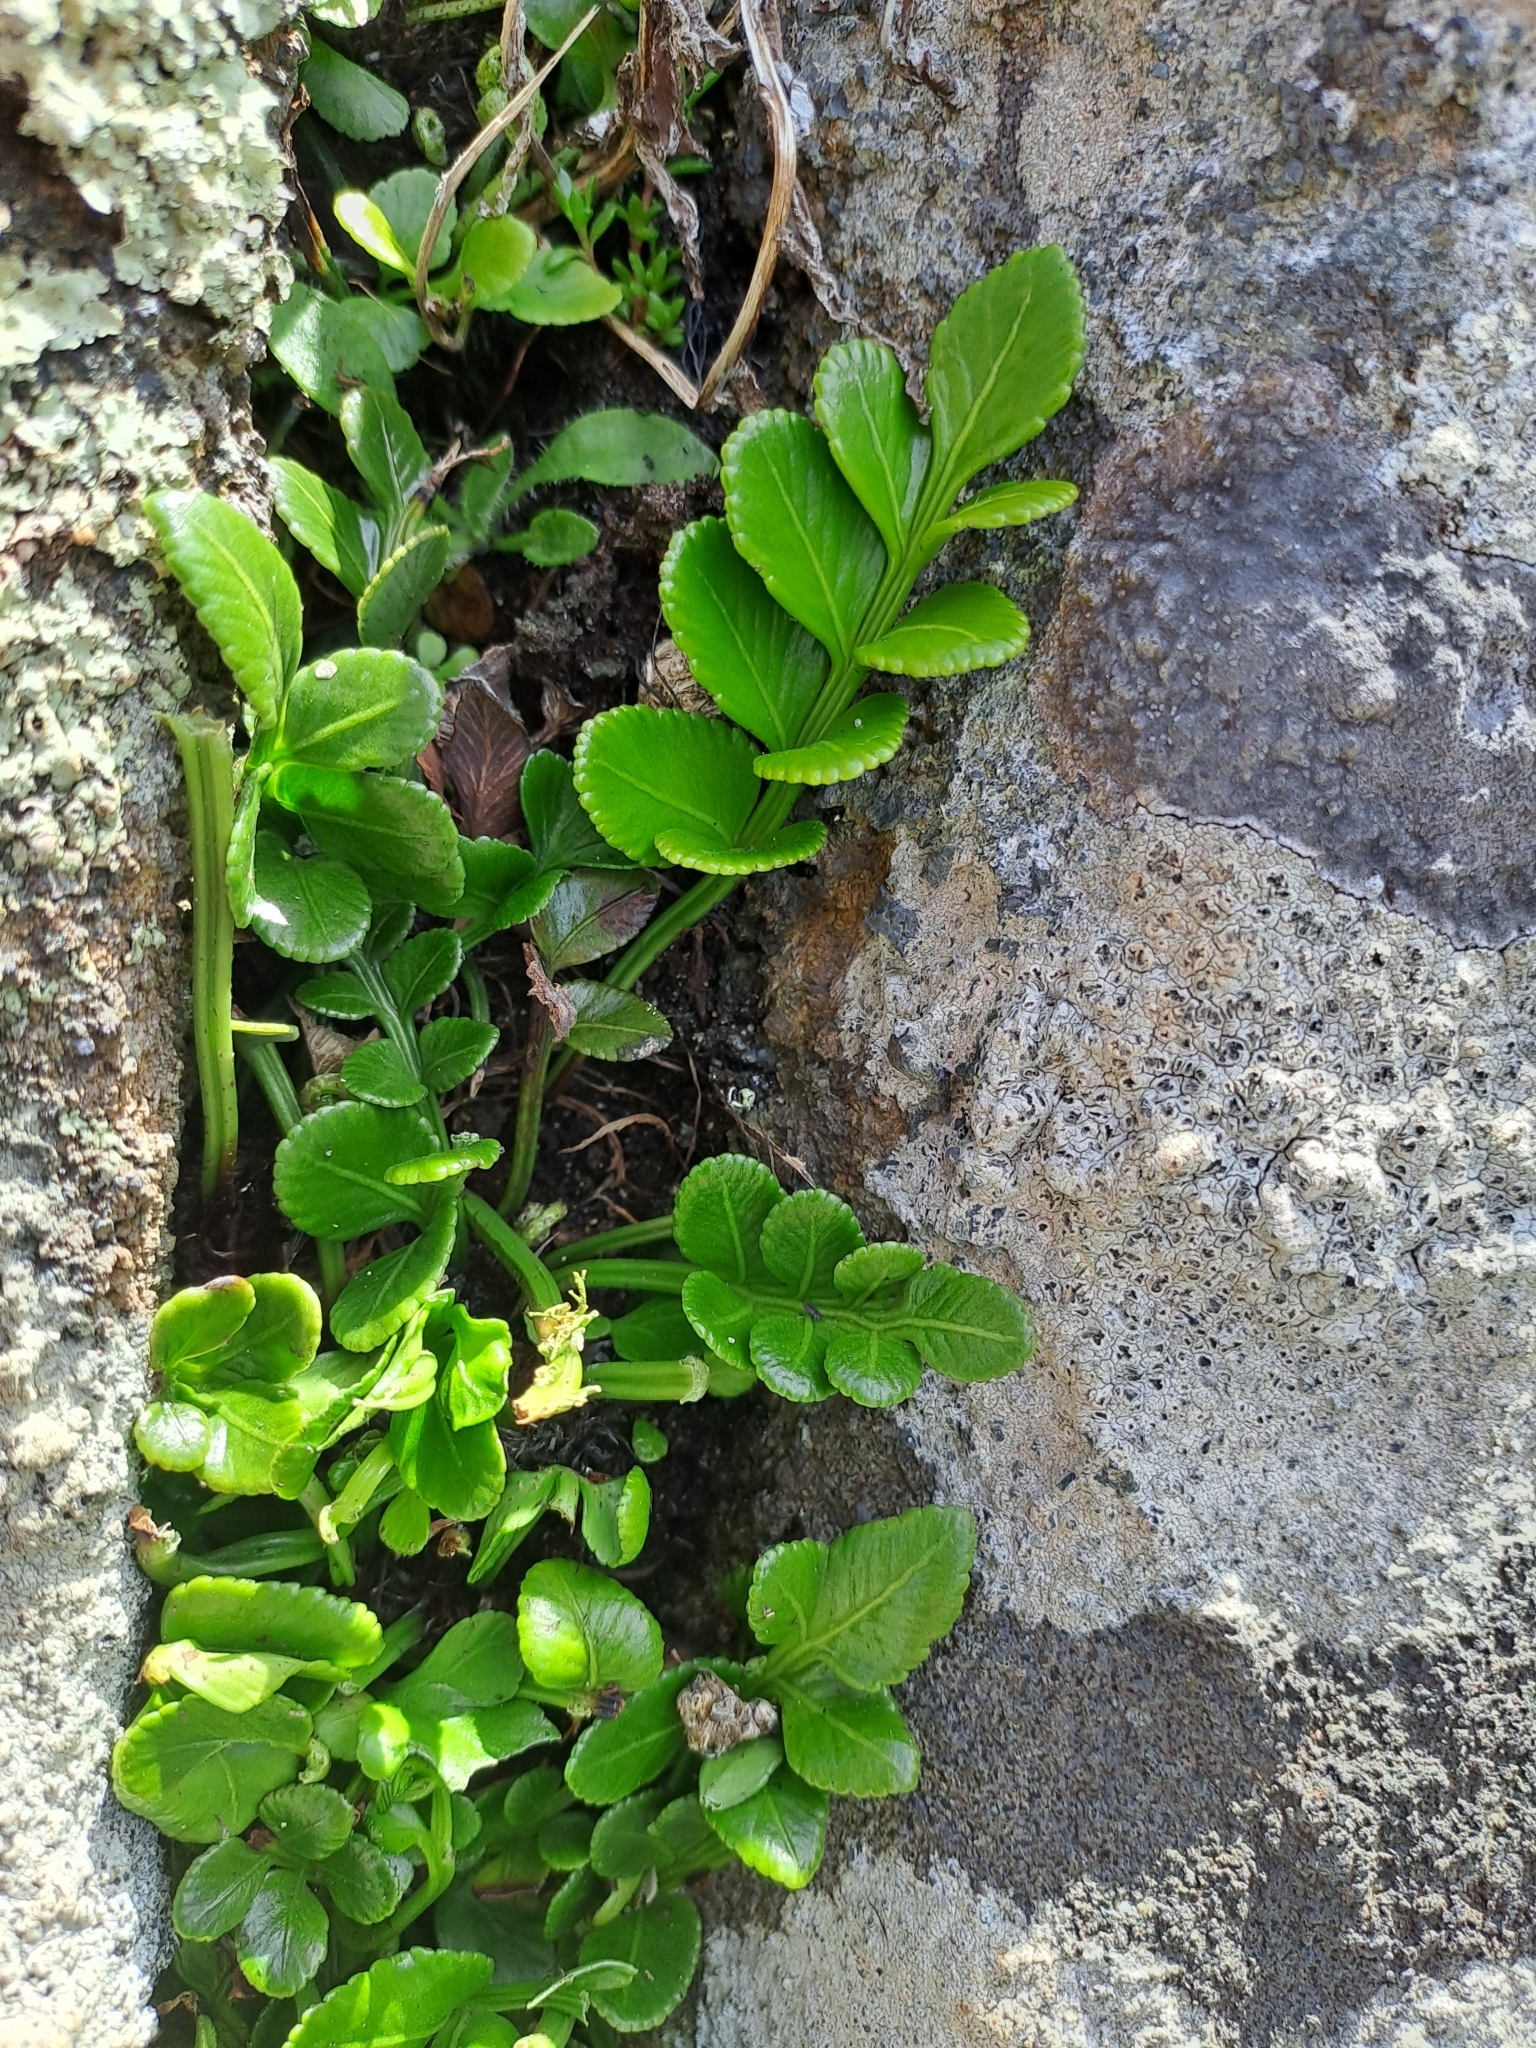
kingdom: Plantae
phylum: Tracheophyta
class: Polypodiopsida
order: Polypodiales
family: Aspleniaceae
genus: Asplenium
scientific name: Asplenium obtusatum
